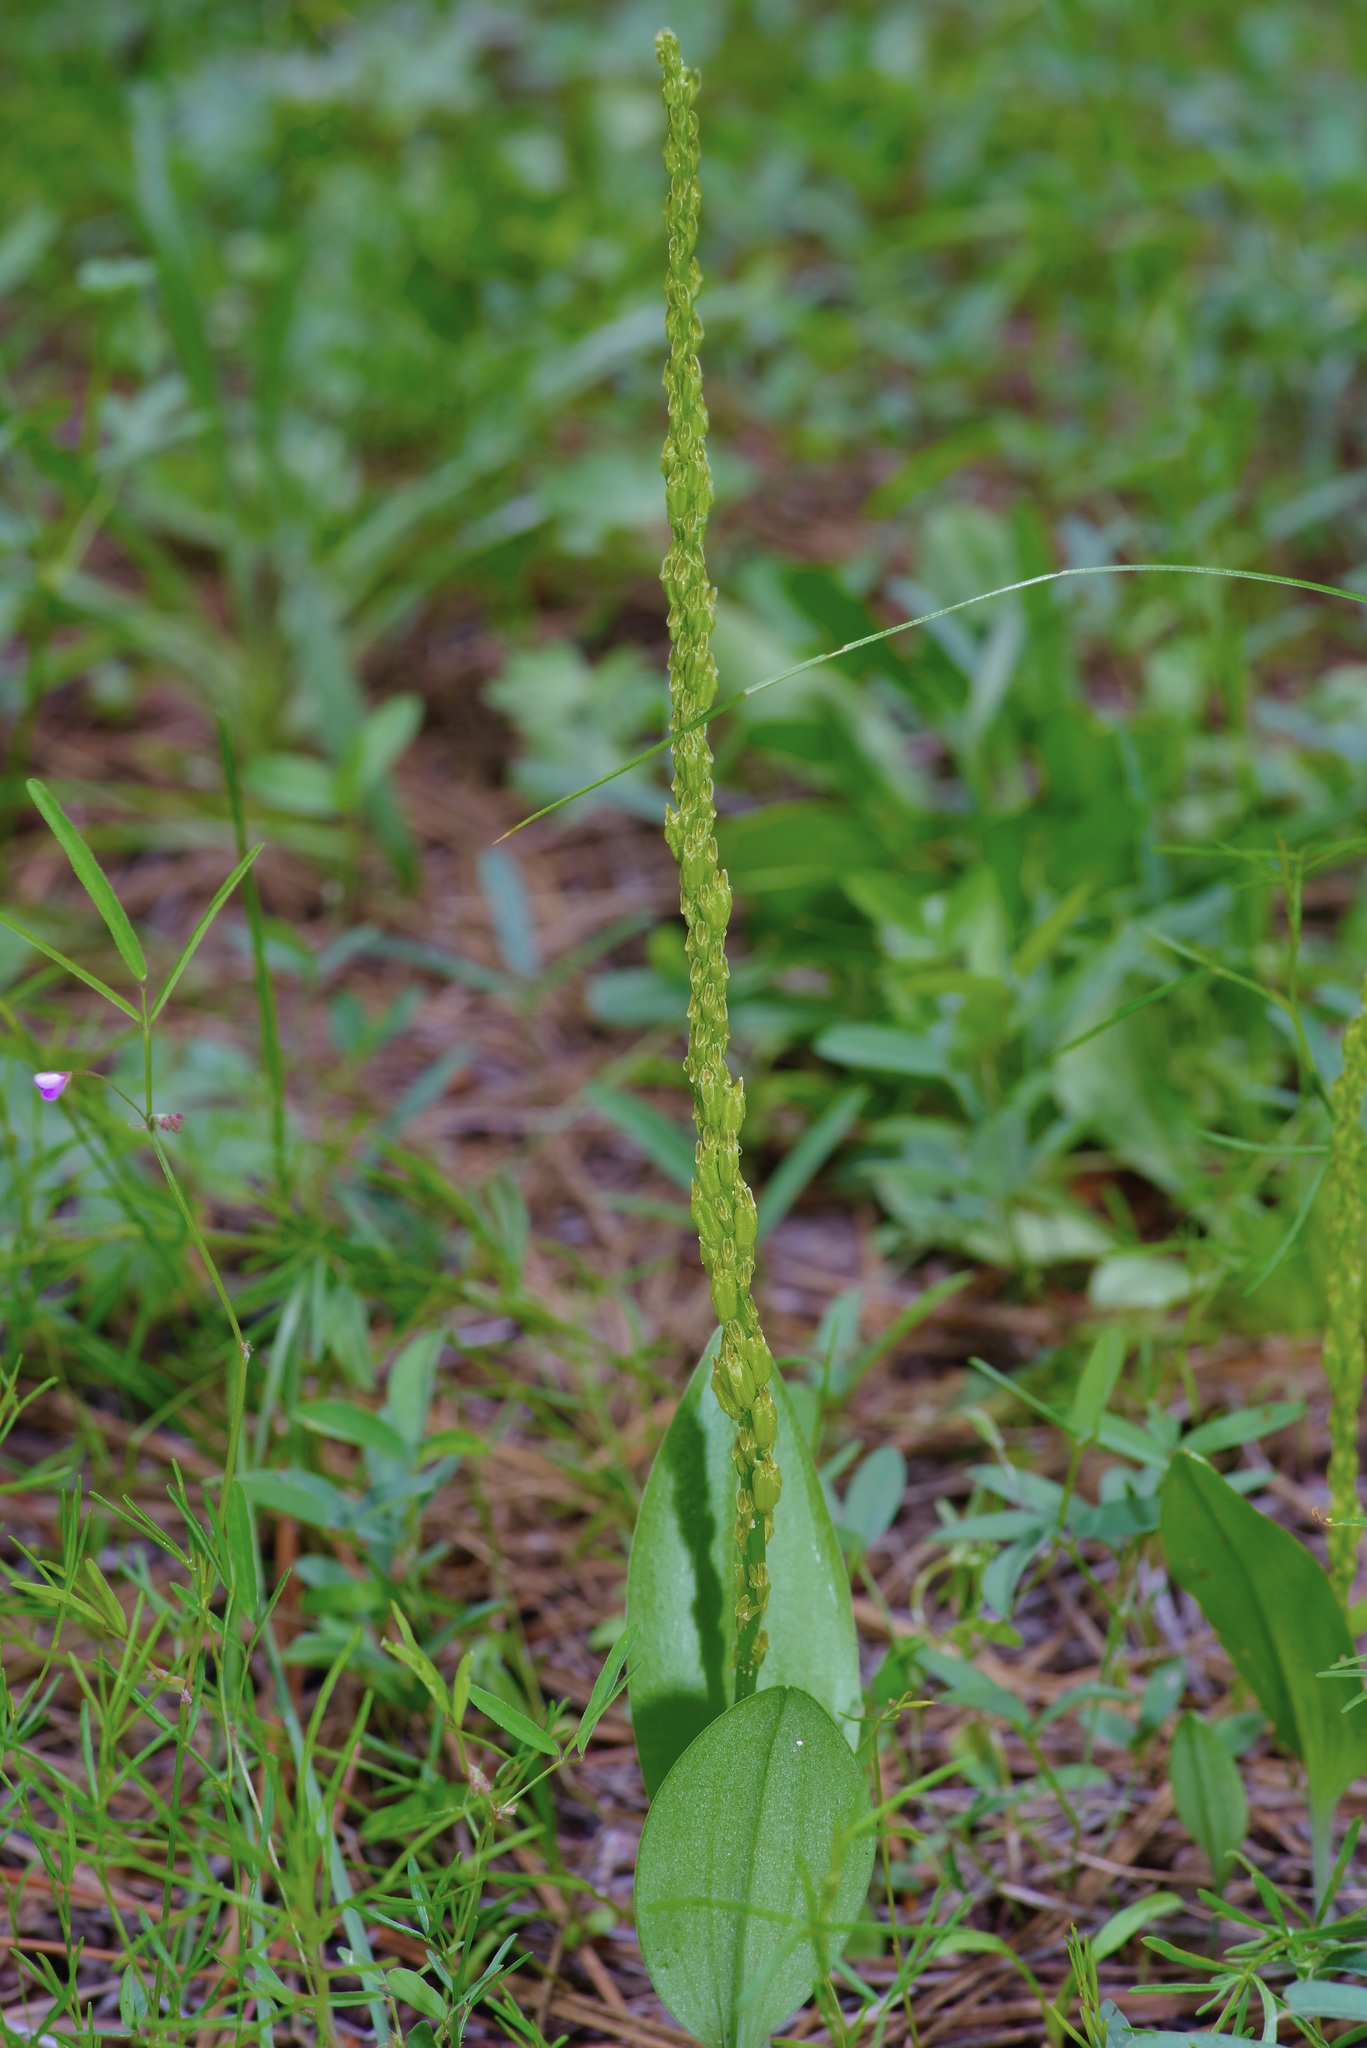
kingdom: Plantae
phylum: Tracheophyta
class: Liliopsida
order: Asparagales
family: Orchidaceae
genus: Malaxis
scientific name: Malaxis macrostachya
